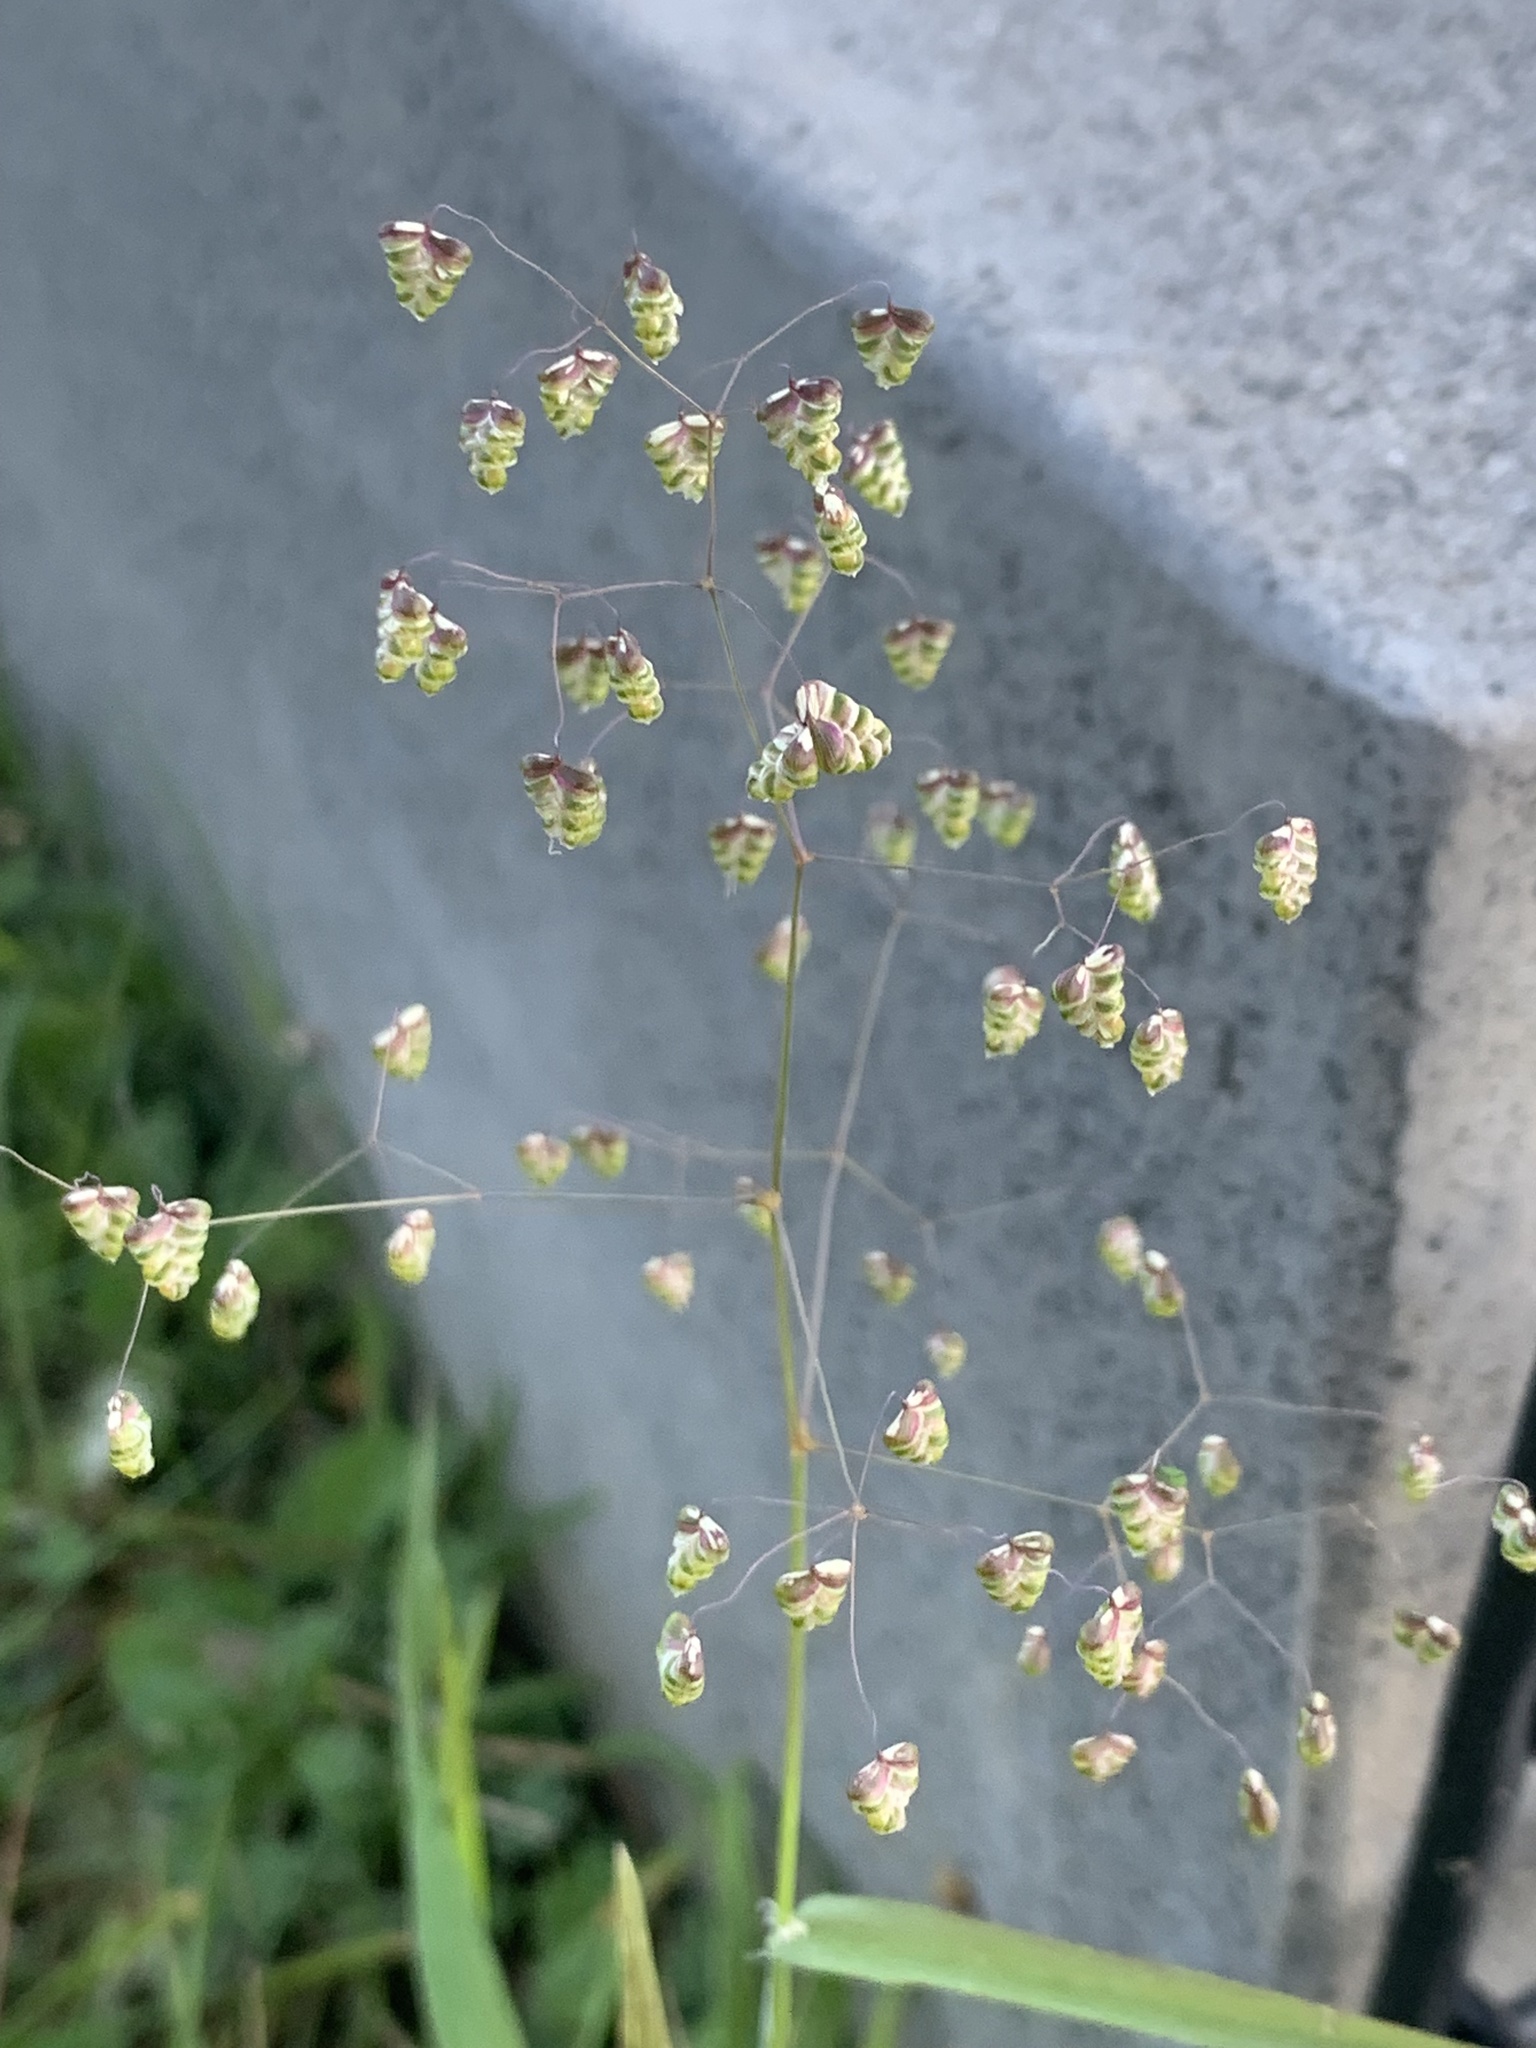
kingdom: Plantae
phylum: Tracheophyta
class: Liliopsida
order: Poales
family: Poaceae
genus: Briza
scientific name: Briza minor
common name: Lesser quaking-grass
